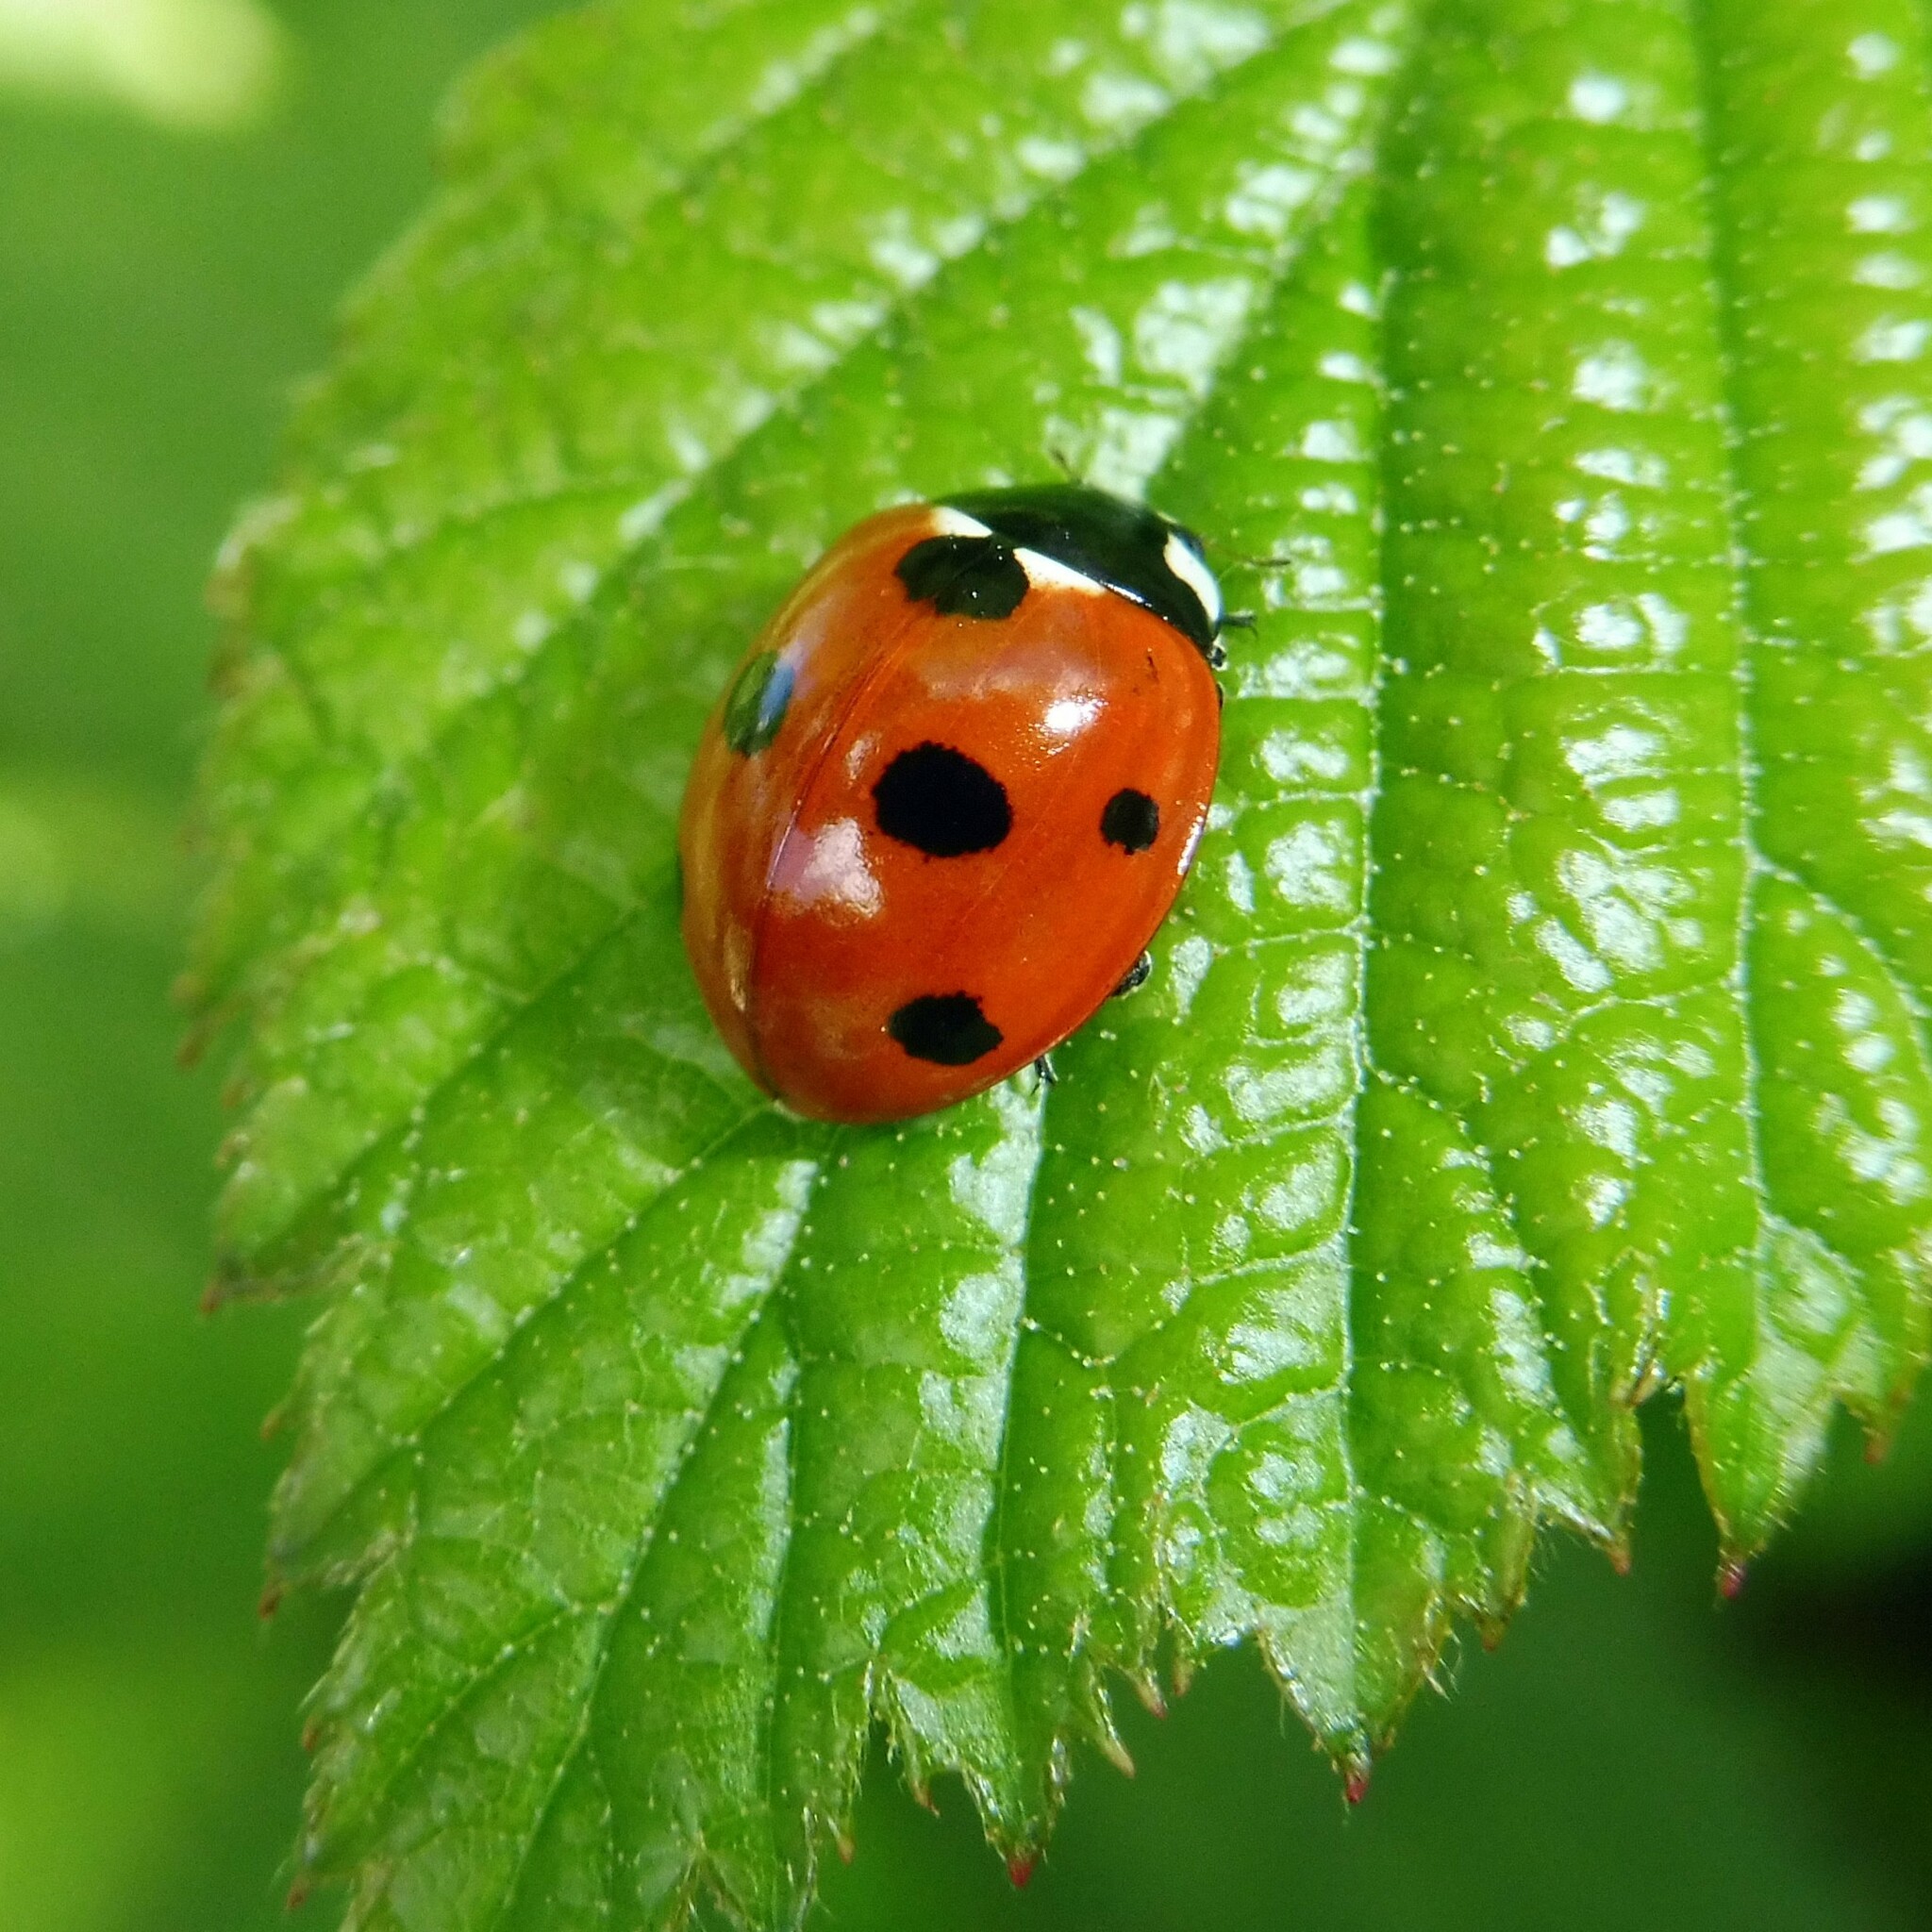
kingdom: Animalia
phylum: Arthropoda
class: Insecta
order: Coleoptera
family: Coccinellidae
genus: Coccinella
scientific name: Coccinella septempunctata
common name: Sevenspotted lady beetle
